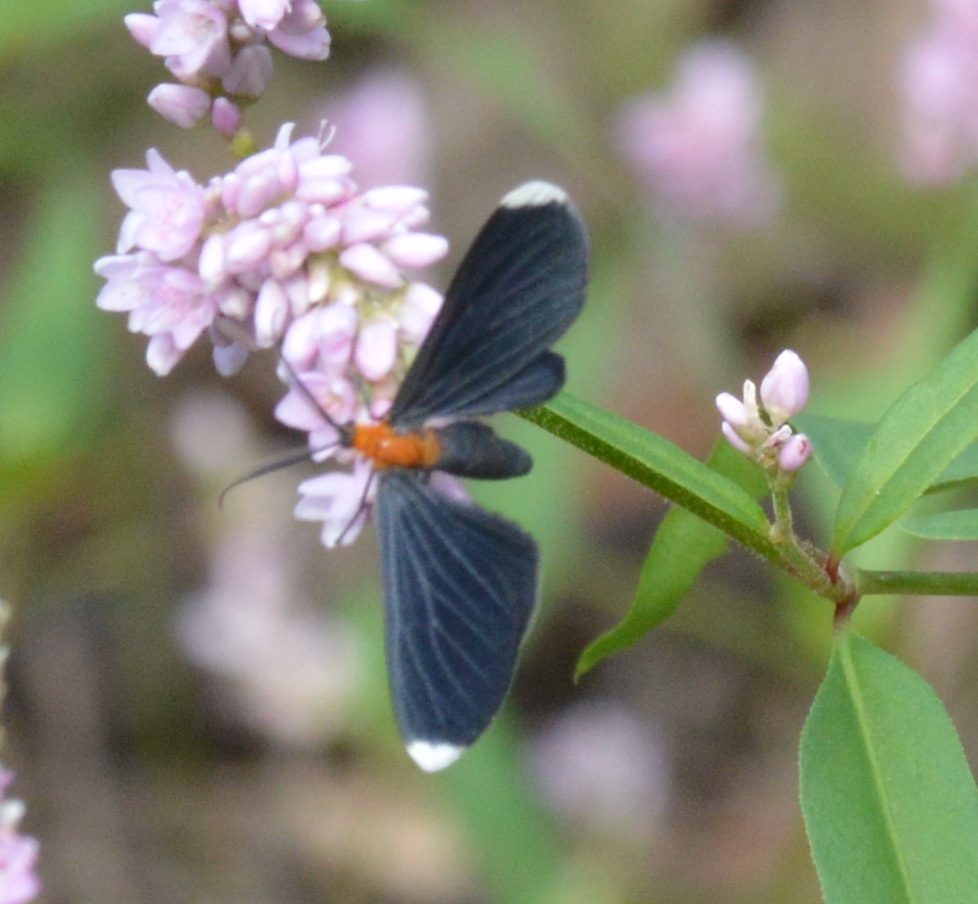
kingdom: Animalia
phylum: Arthropoda
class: Insecta
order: Lepidoptera
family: Geometridae
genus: Melanchroia
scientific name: Melanchroia chephise
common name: White-tipped black
